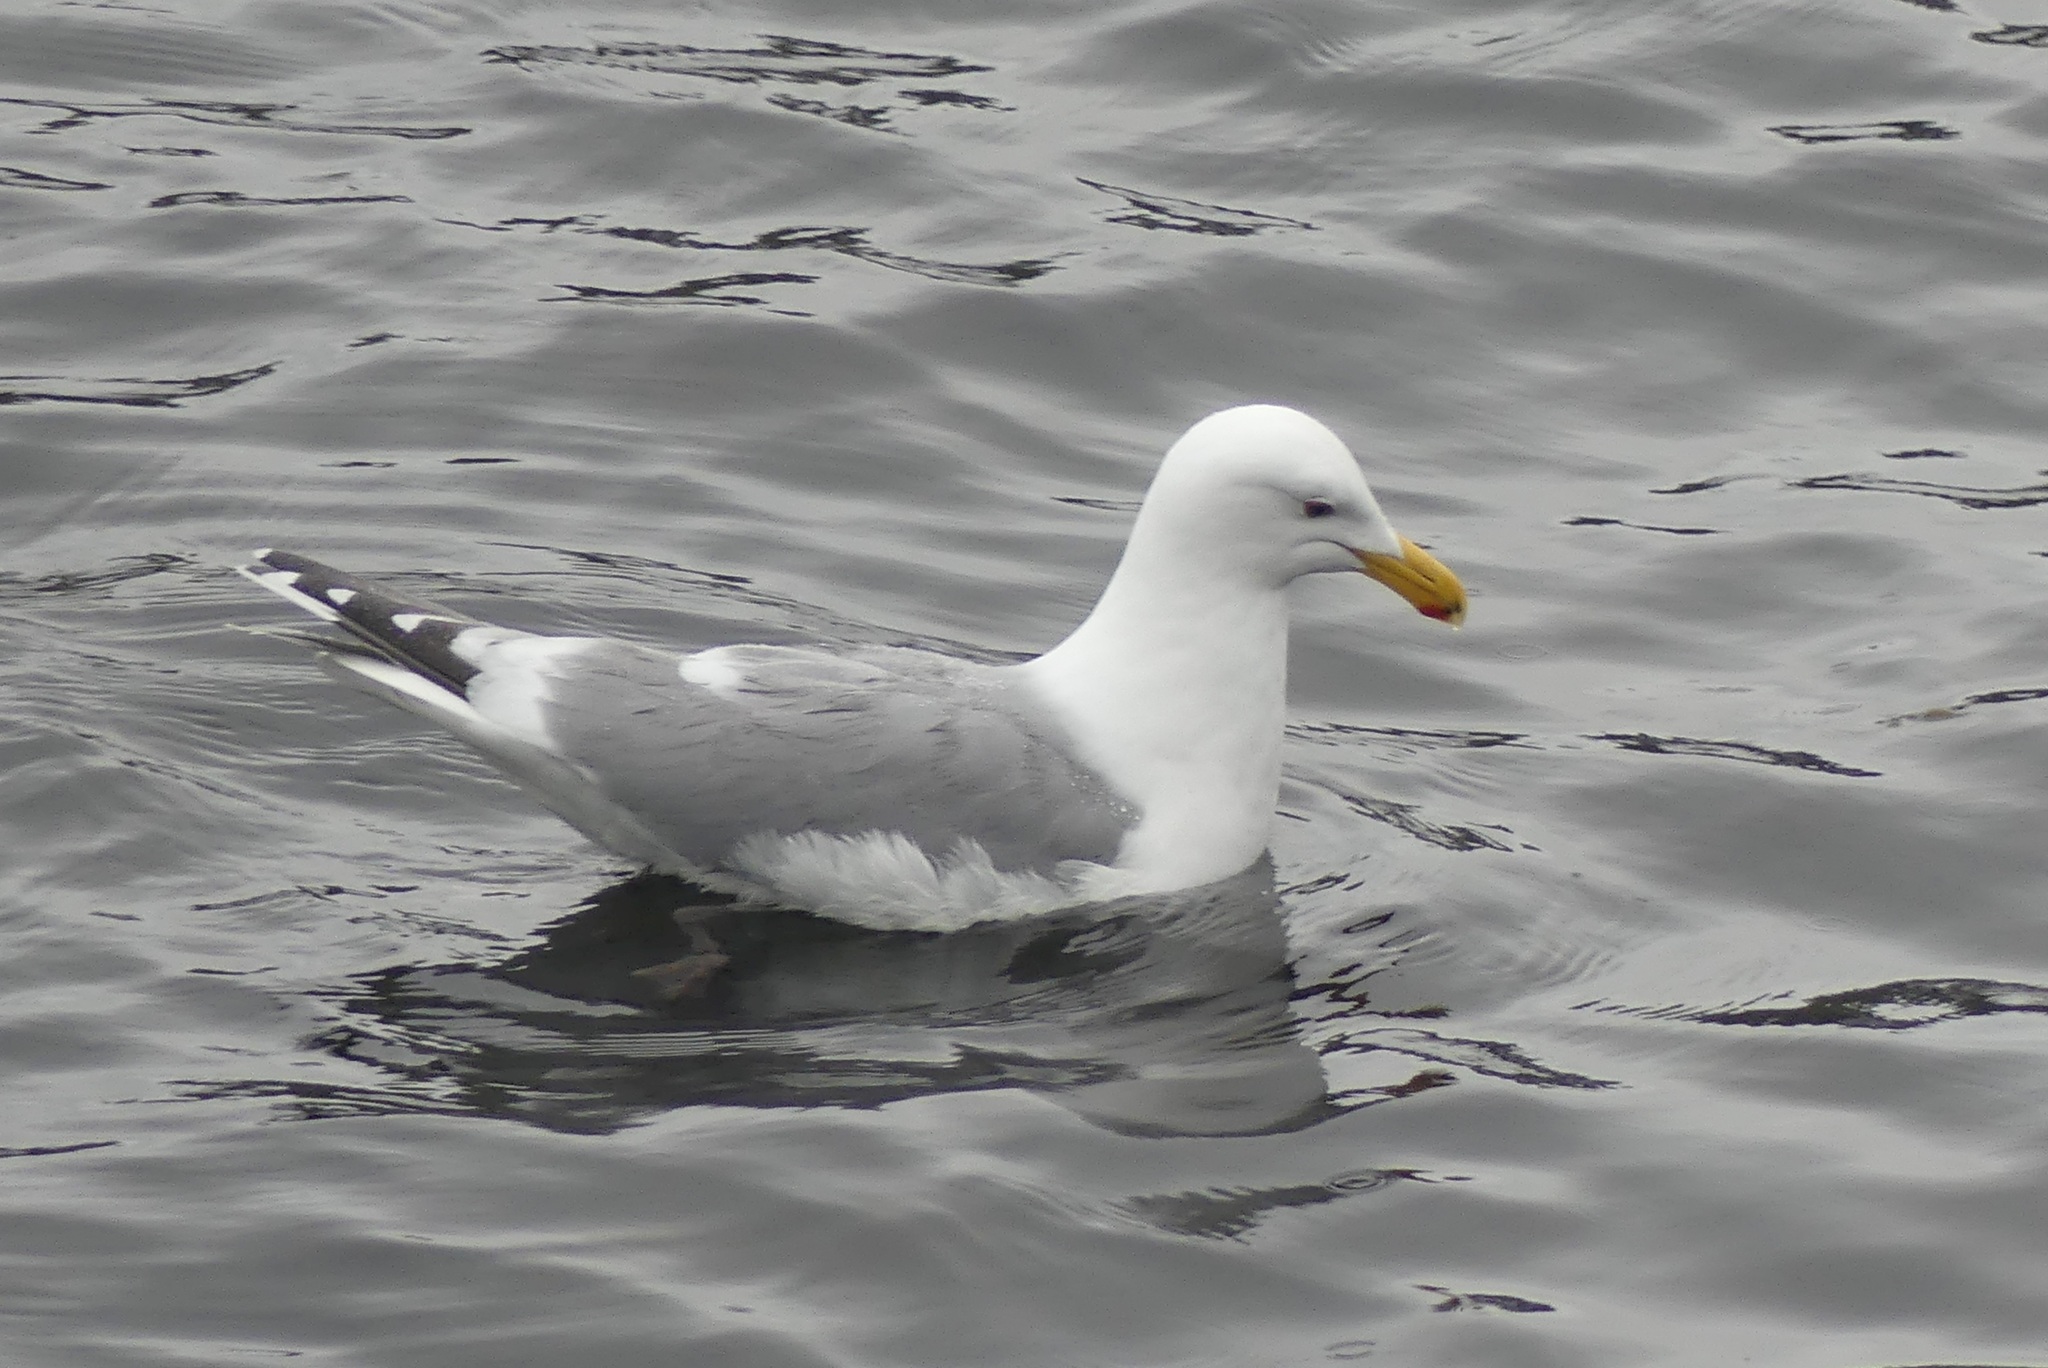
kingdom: Animalia
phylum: Chordata
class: Aves
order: Charadriiformes
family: Laridae
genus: Larus
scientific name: Larus
